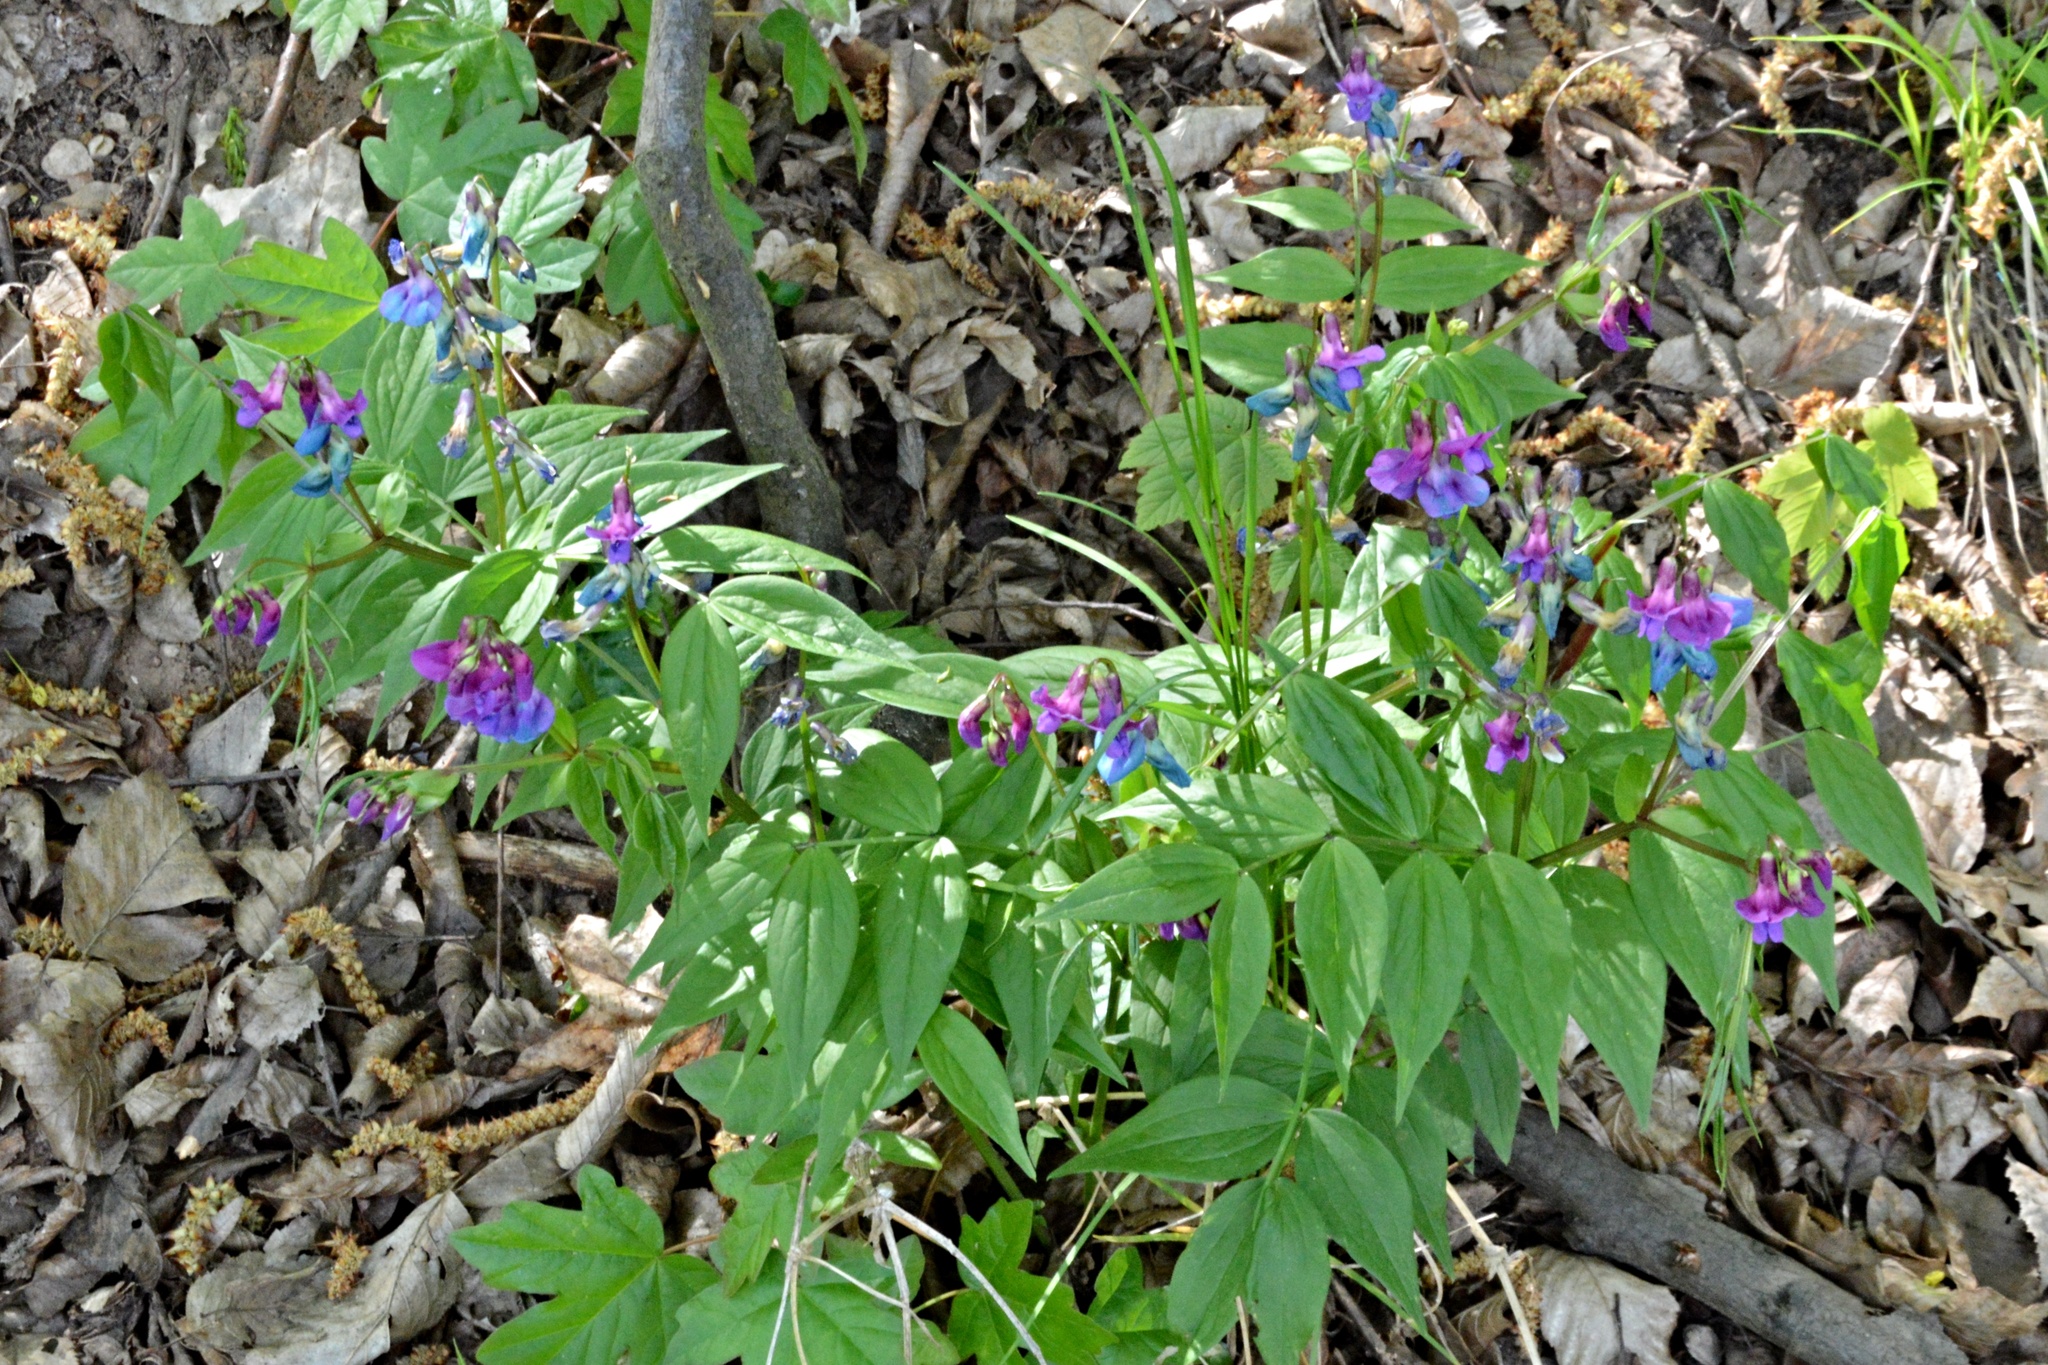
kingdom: Plantae
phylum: Tracheophyta
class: Magnoliopsida
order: Fabales
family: Fabaceae
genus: Lathyrus
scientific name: Lathyrus vernus
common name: Spring pea
